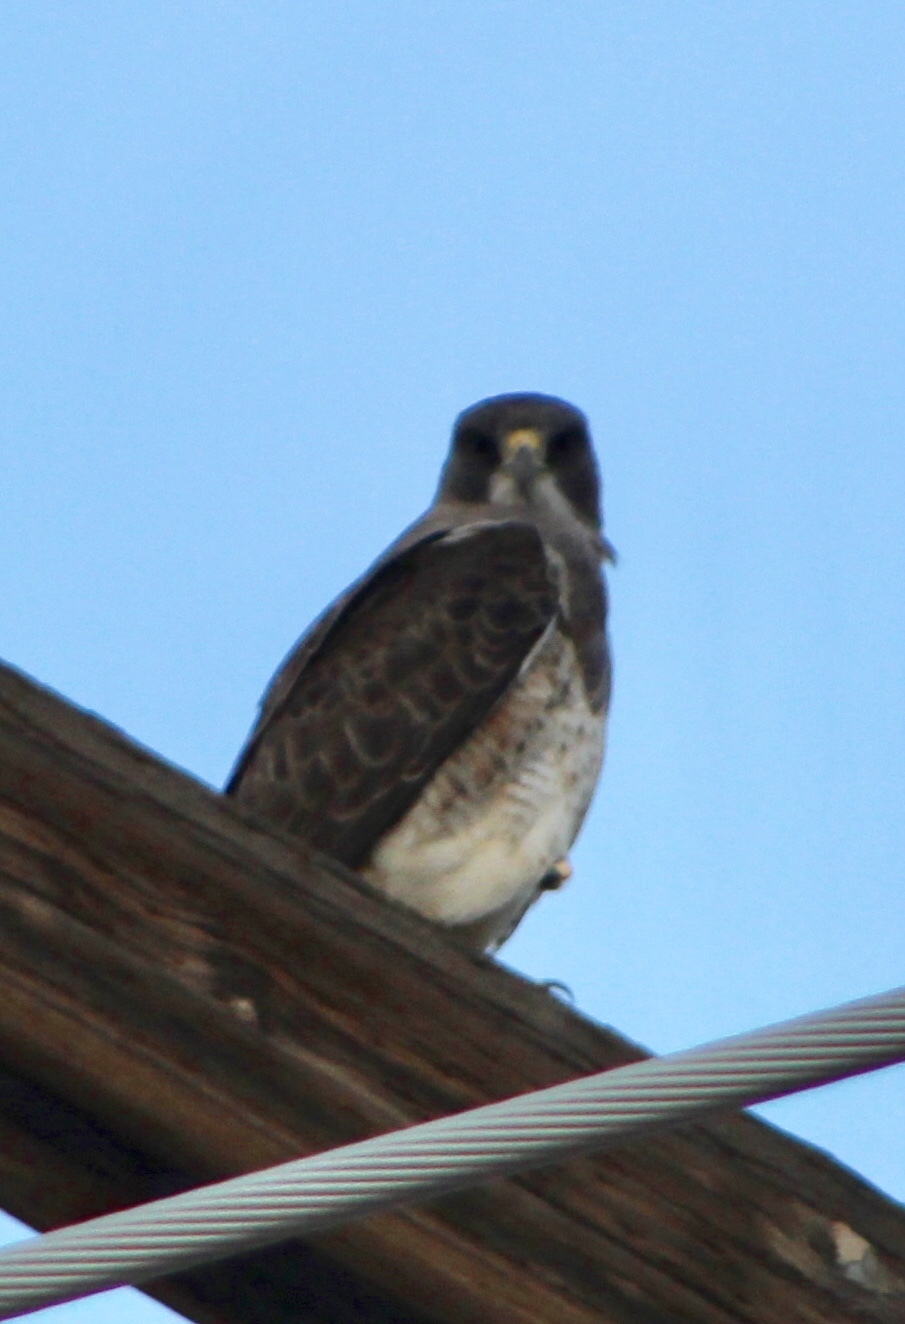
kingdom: Animalia
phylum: Chordata
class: Aves
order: Accipitriformes
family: Accipitridae
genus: Buteo
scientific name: Buteo swainsoni
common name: Swainson's hawk
